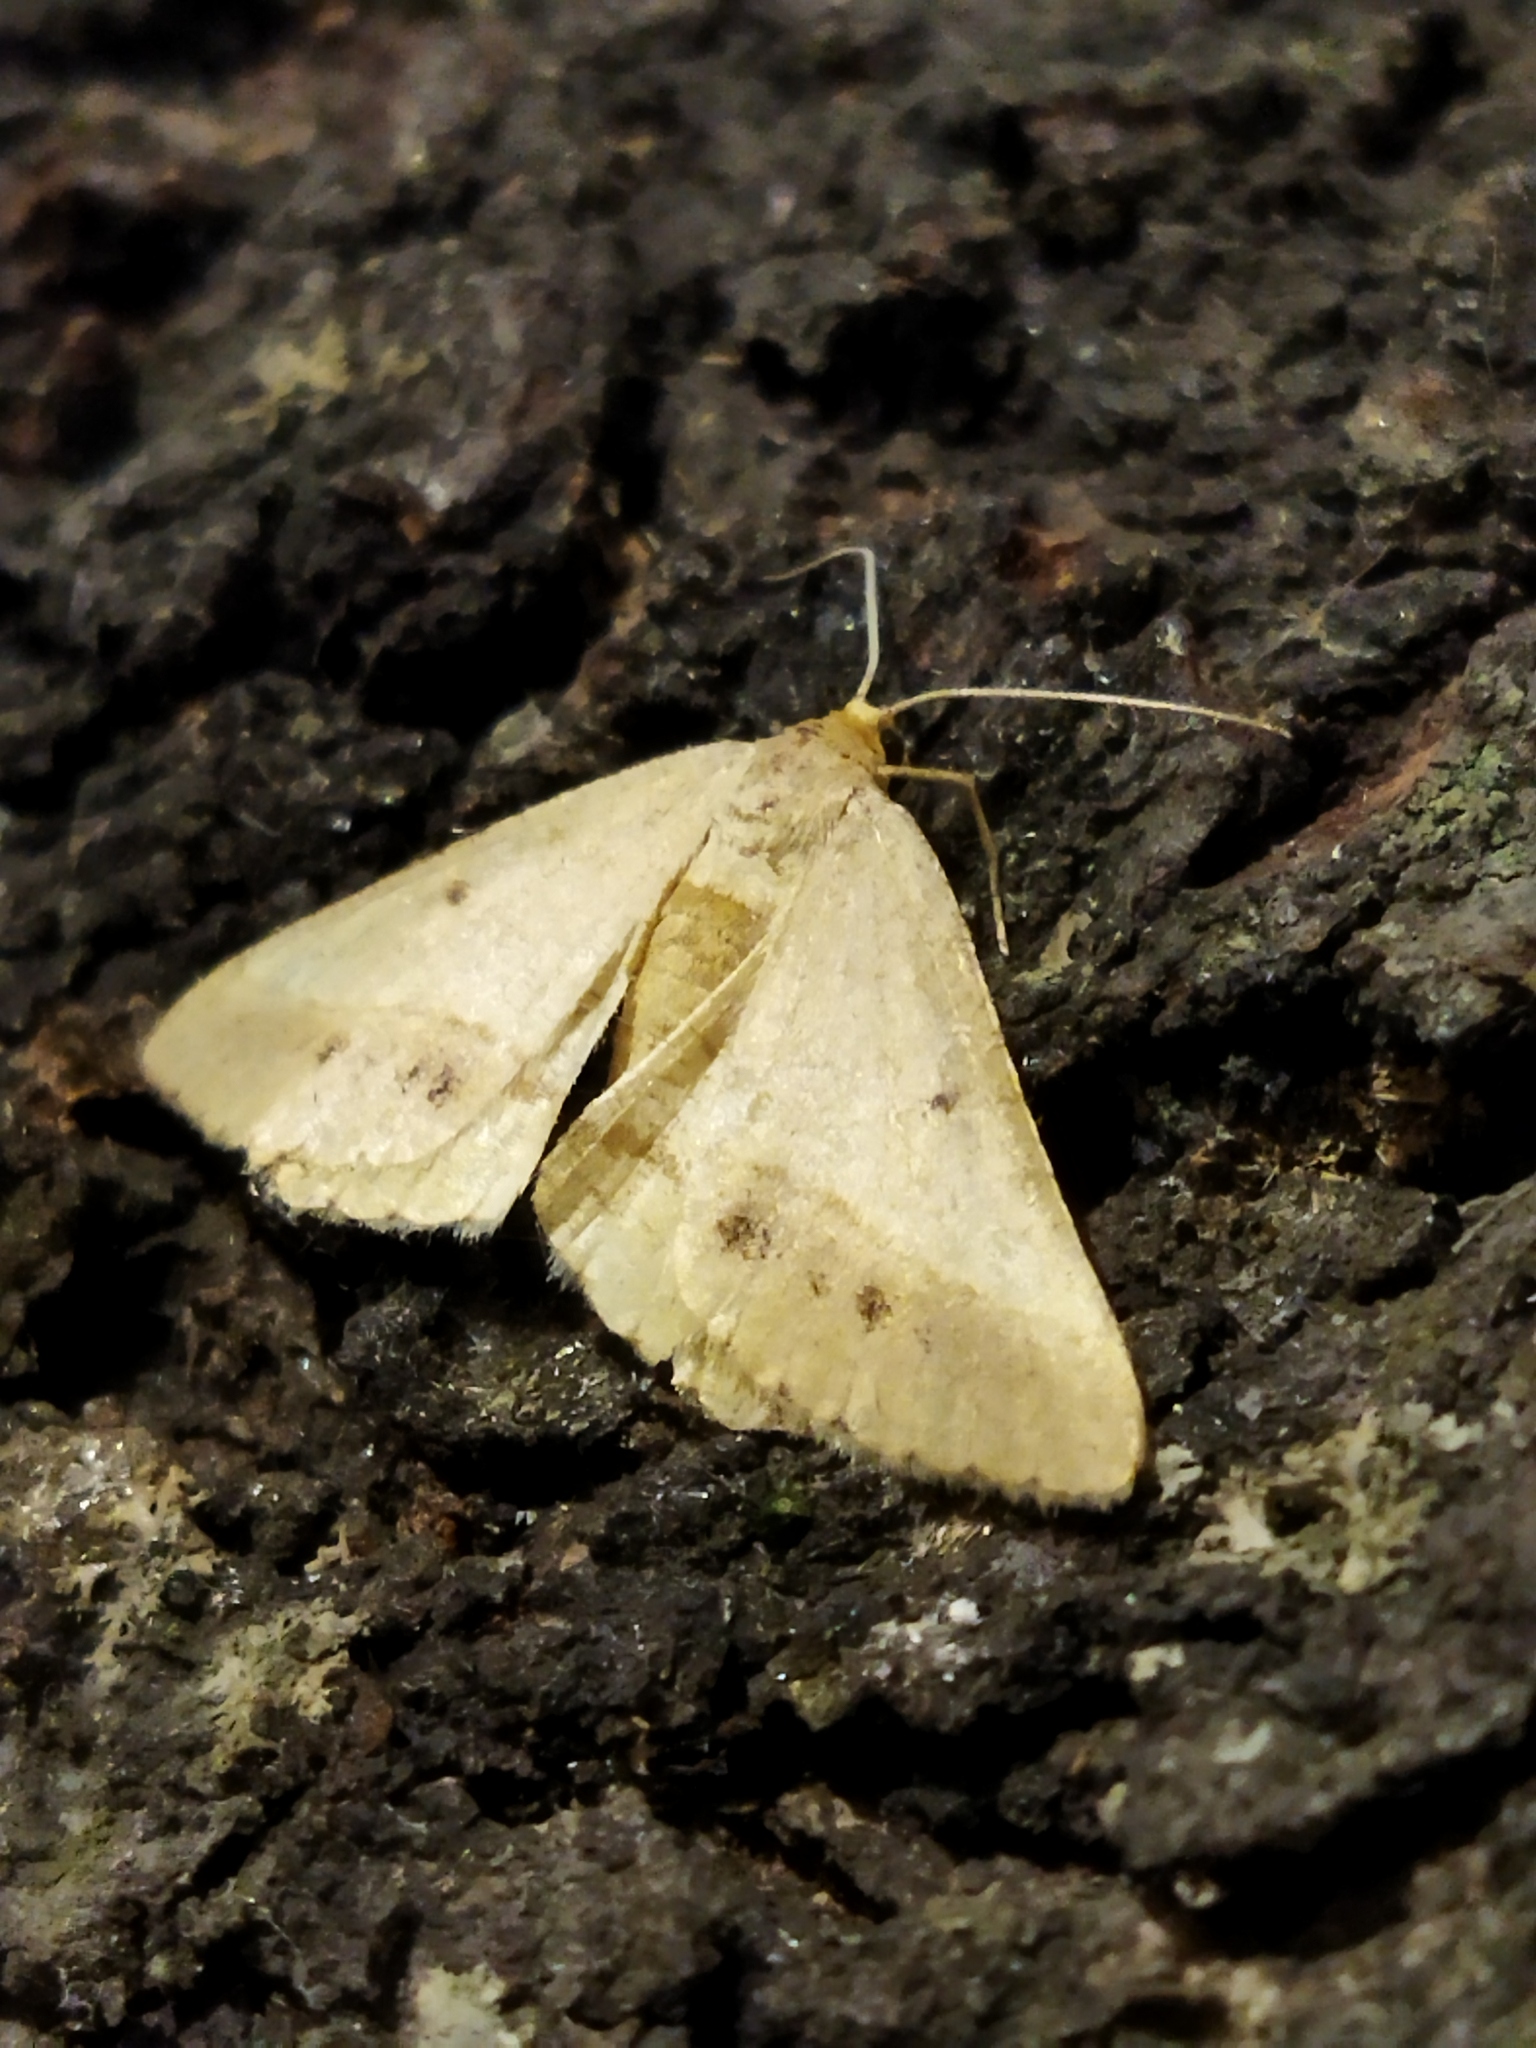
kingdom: Animalia
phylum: Arthropoda
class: Insecta
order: Lepidoptera
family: Geometridae
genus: Tephrina
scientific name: Tephrina arenacearia
